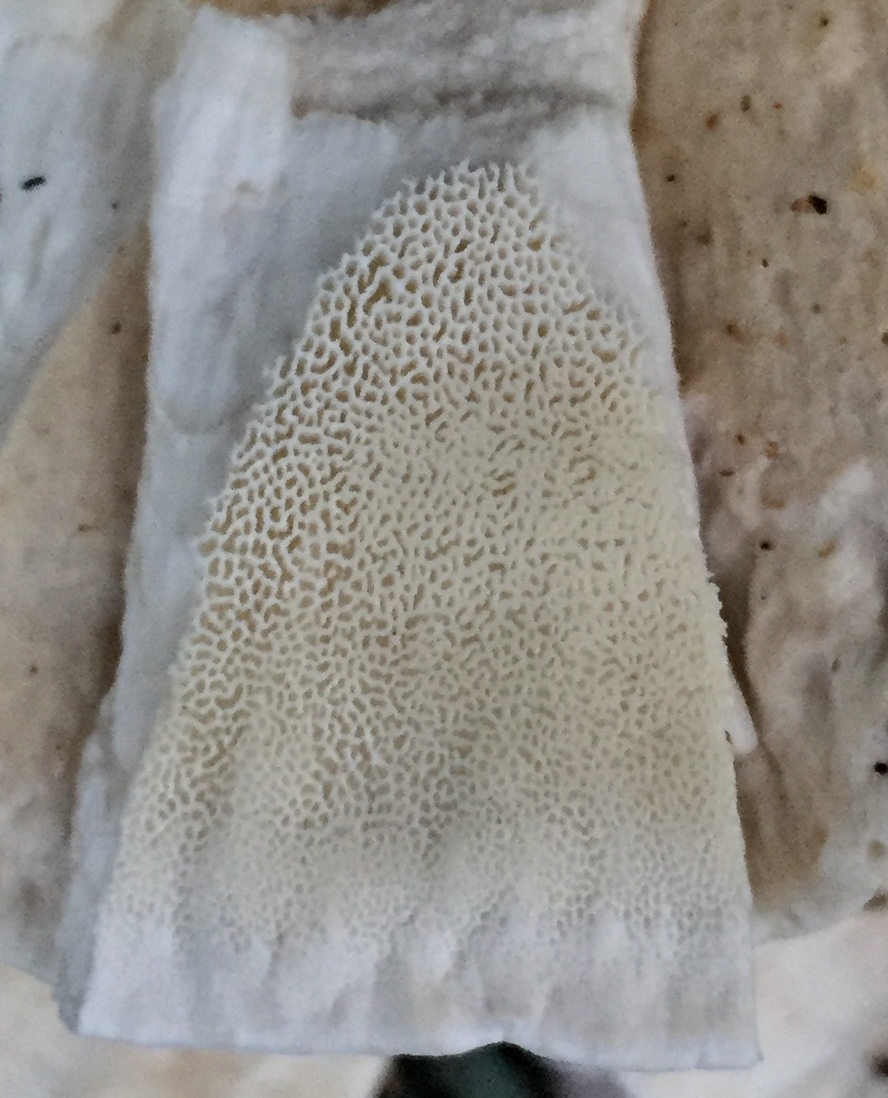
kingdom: Fungi
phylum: Basidiomycota
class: Agaricomycetes
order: Russulales
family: Bondarzewiaceae
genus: Bondarzewia
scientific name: Bondarzewia berkeleyi
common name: Berkeley's polypore
